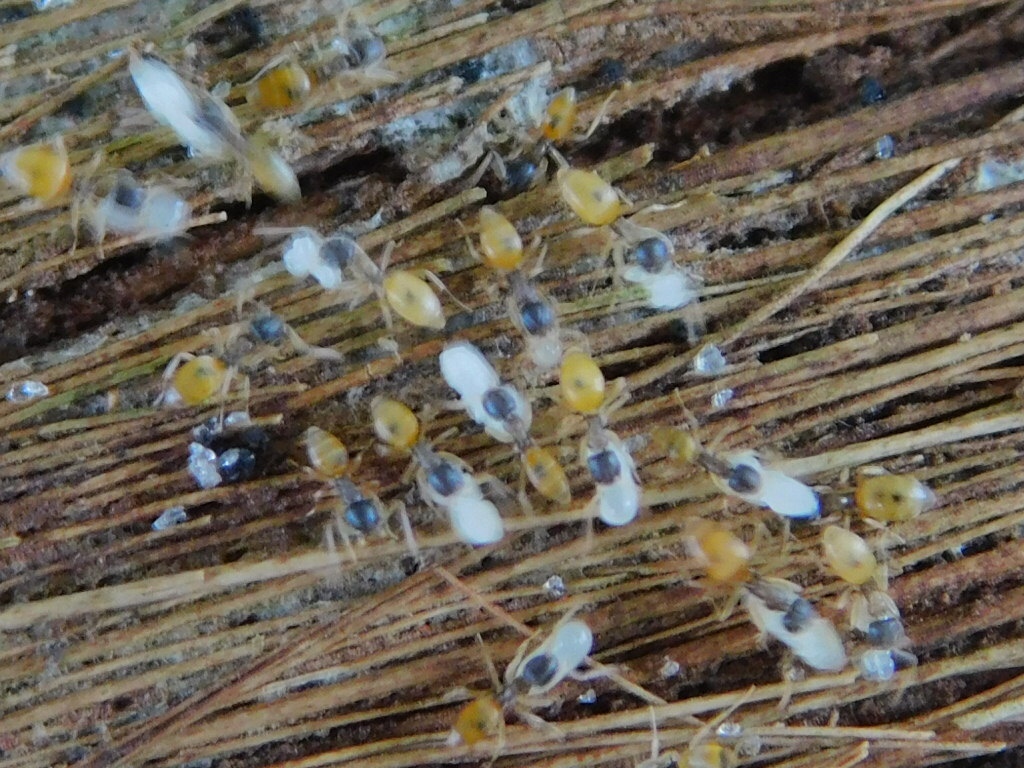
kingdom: Animalia
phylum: Arthropoda
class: Insecta
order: Hymenoptera
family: Formicidae
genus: Tapinoma
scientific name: Tapinoma melanocephalum
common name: Ghost ant
